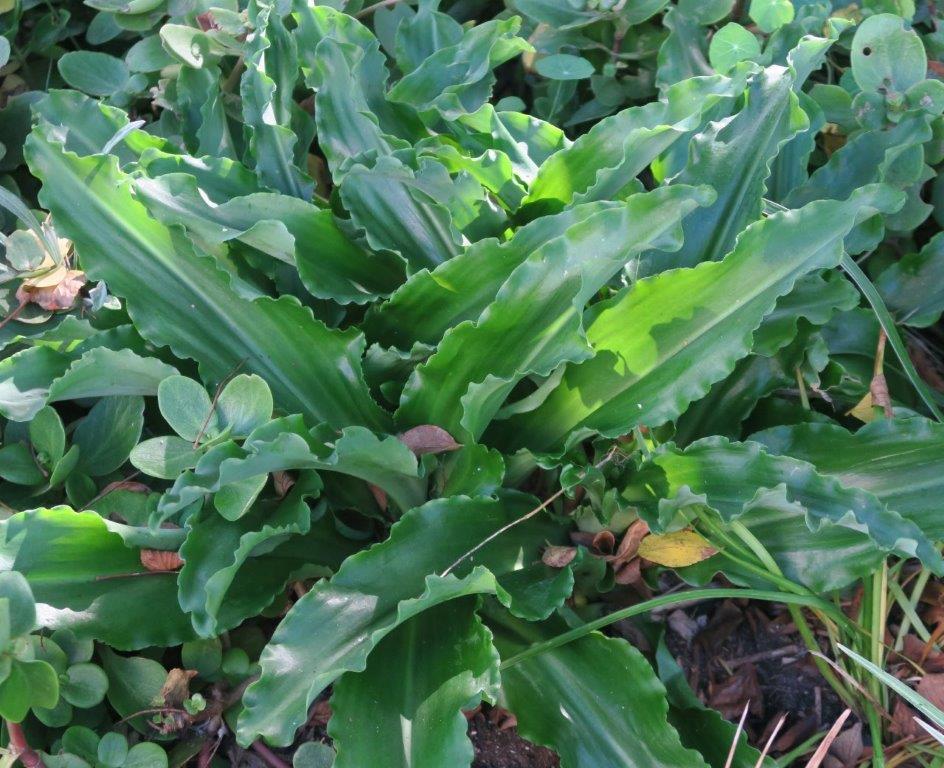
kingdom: Plantae
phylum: Tracheophyta
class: Liliopsida
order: Asparagales
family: Asparagaceae
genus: Veltheimia
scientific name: Veltheimia bracteata
